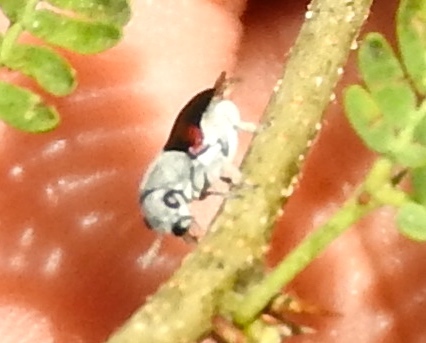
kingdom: Animalia
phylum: Arthropoda
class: Insecta
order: Coleoptera
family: Chrysomelidae
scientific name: Chrysomelidae
